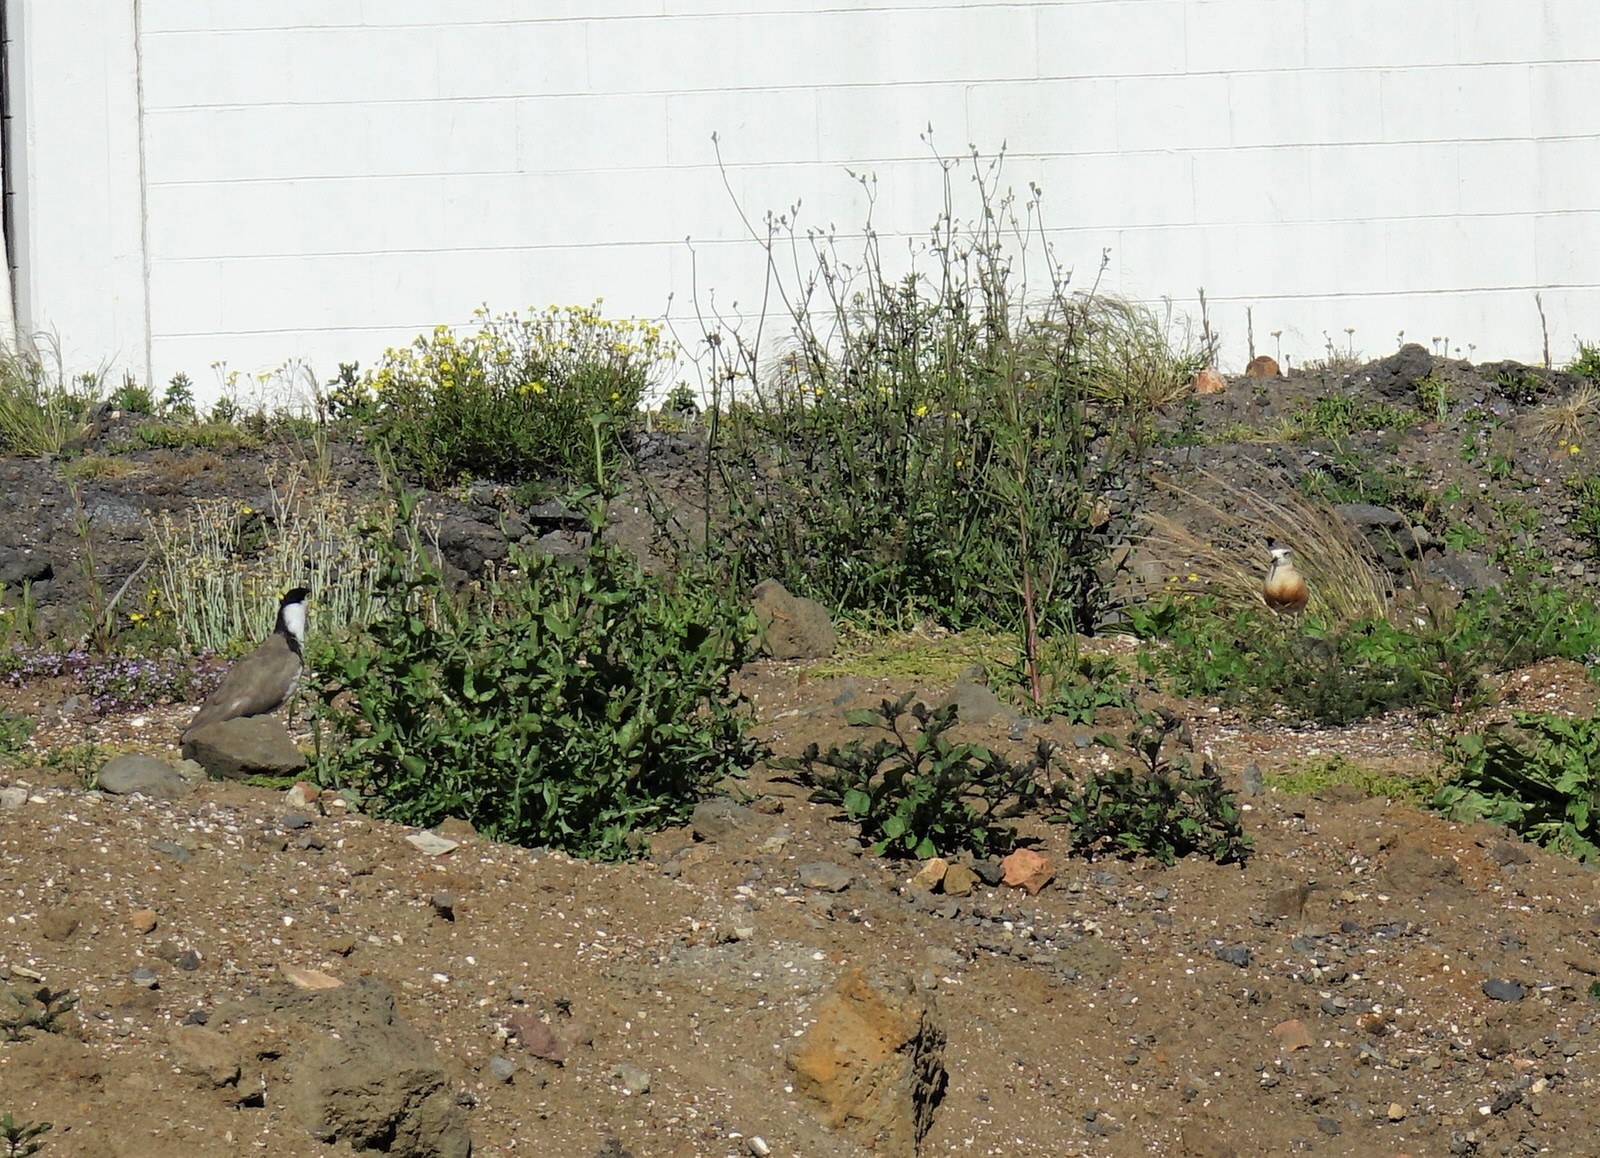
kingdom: Animalia
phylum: Chordata
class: Aves
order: Charadriiformes
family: Charadriidae
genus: Anarhynchus
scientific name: Anarhynchus
